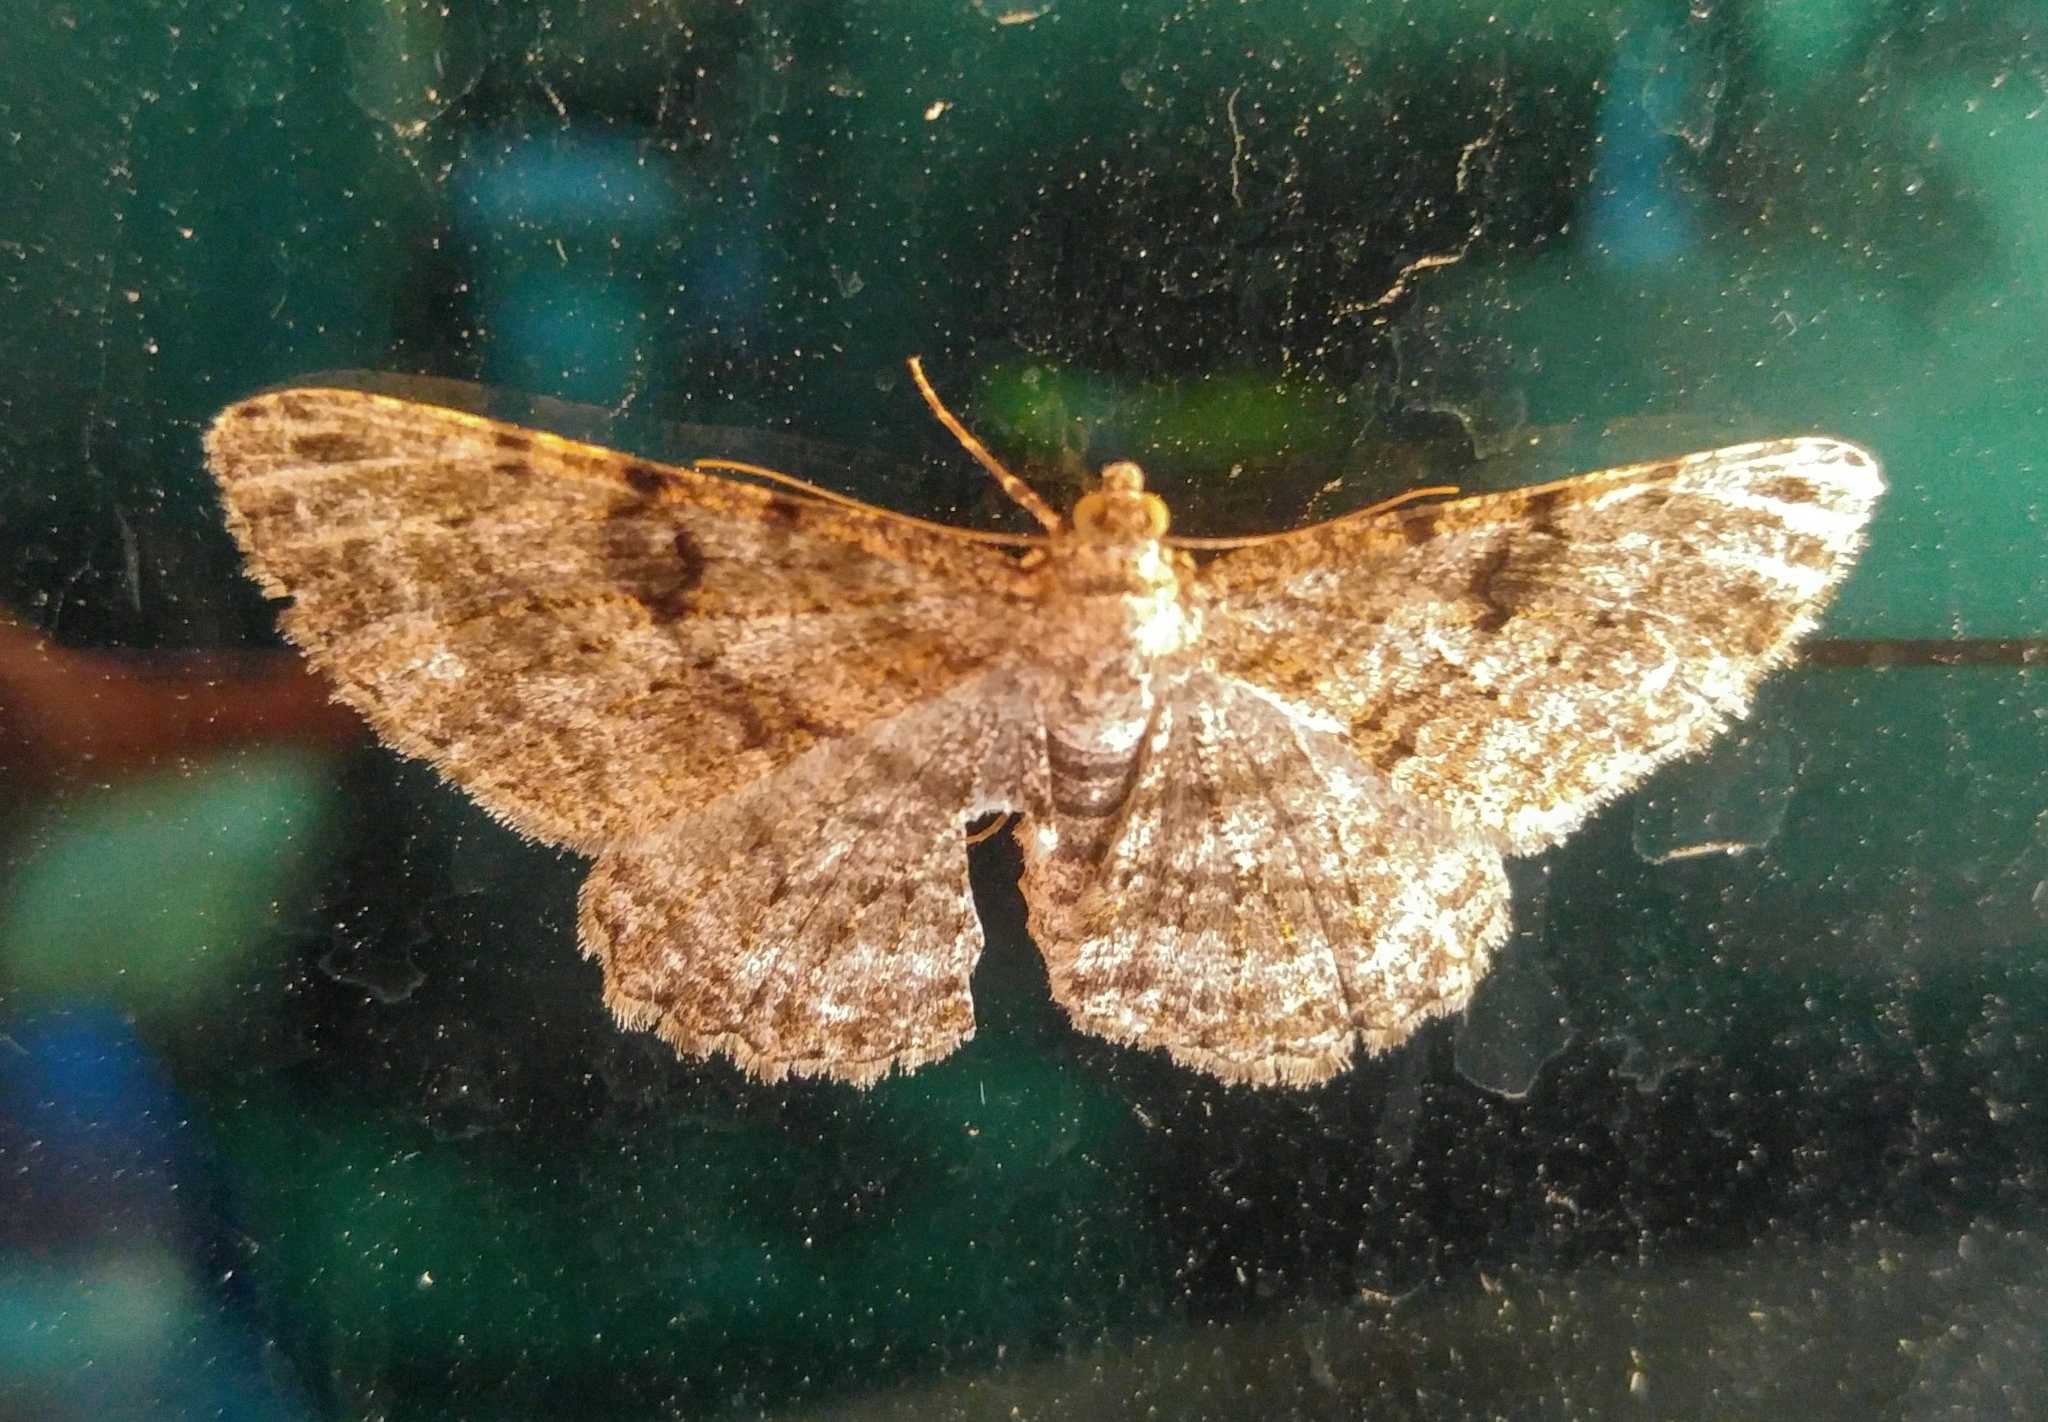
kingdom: Animalia
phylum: Arthropoda
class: Insecta
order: Lepidoptera
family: Geometridae
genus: Peribatodes
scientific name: Peribatodes rhomboidaria
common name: Willow beauty
